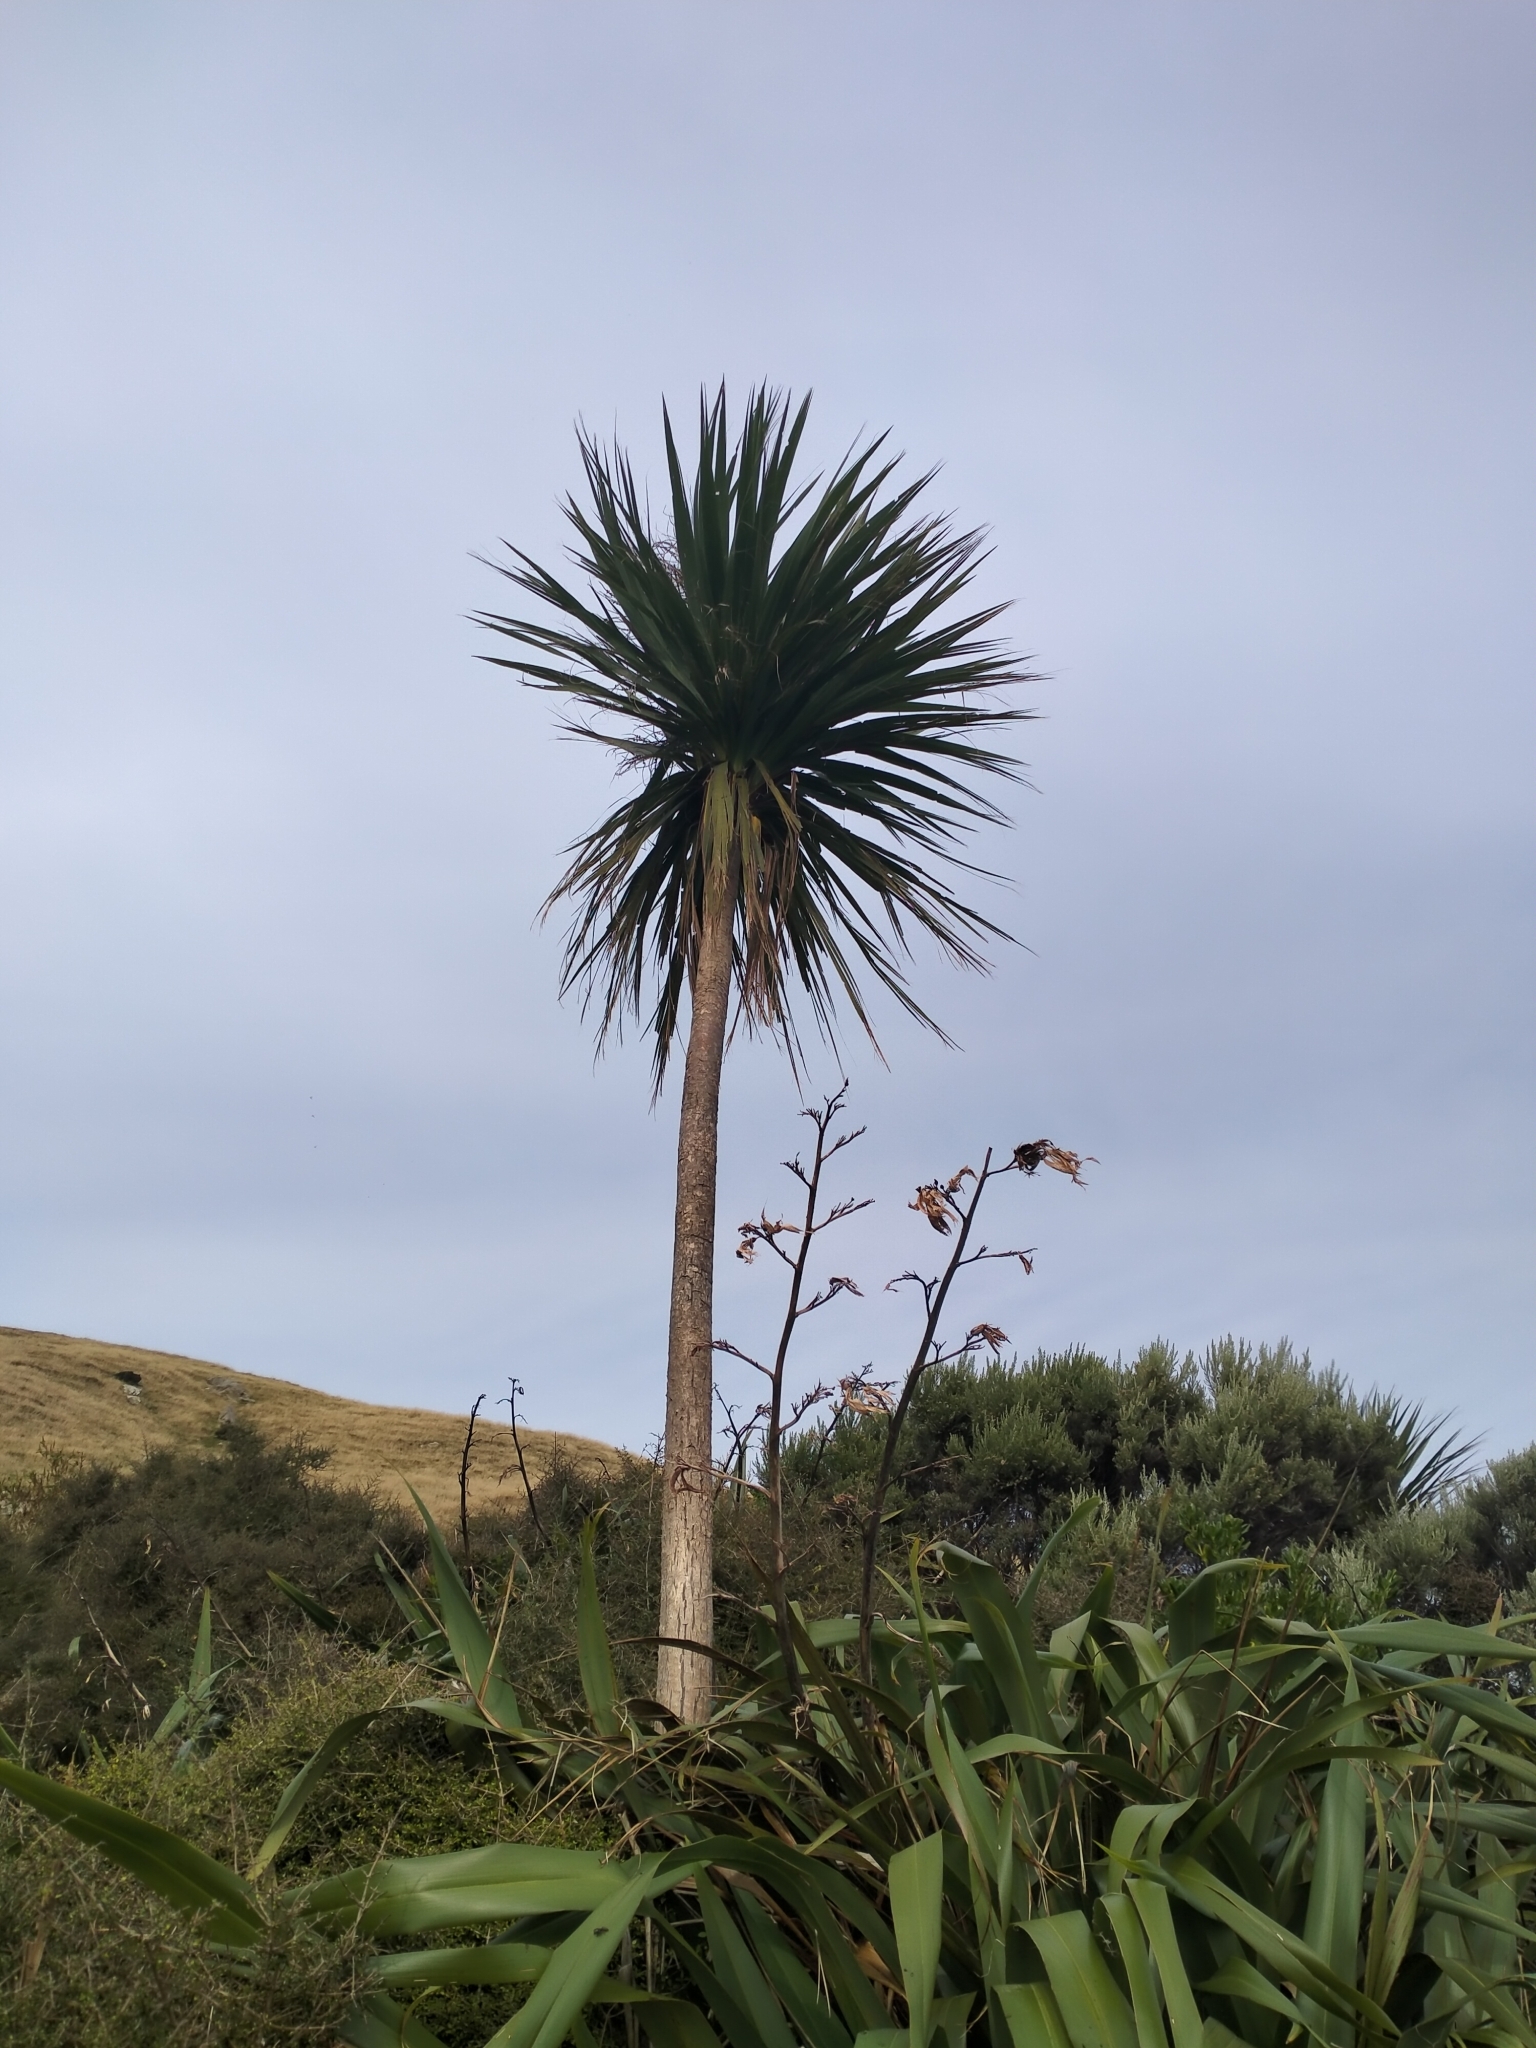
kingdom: Plantae
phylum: Tracheophyta
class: Liliopsida
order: Asparagales
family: Asparagaceae
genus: Cordyline
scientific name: Cordyline australis
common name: Cabbage-palm
